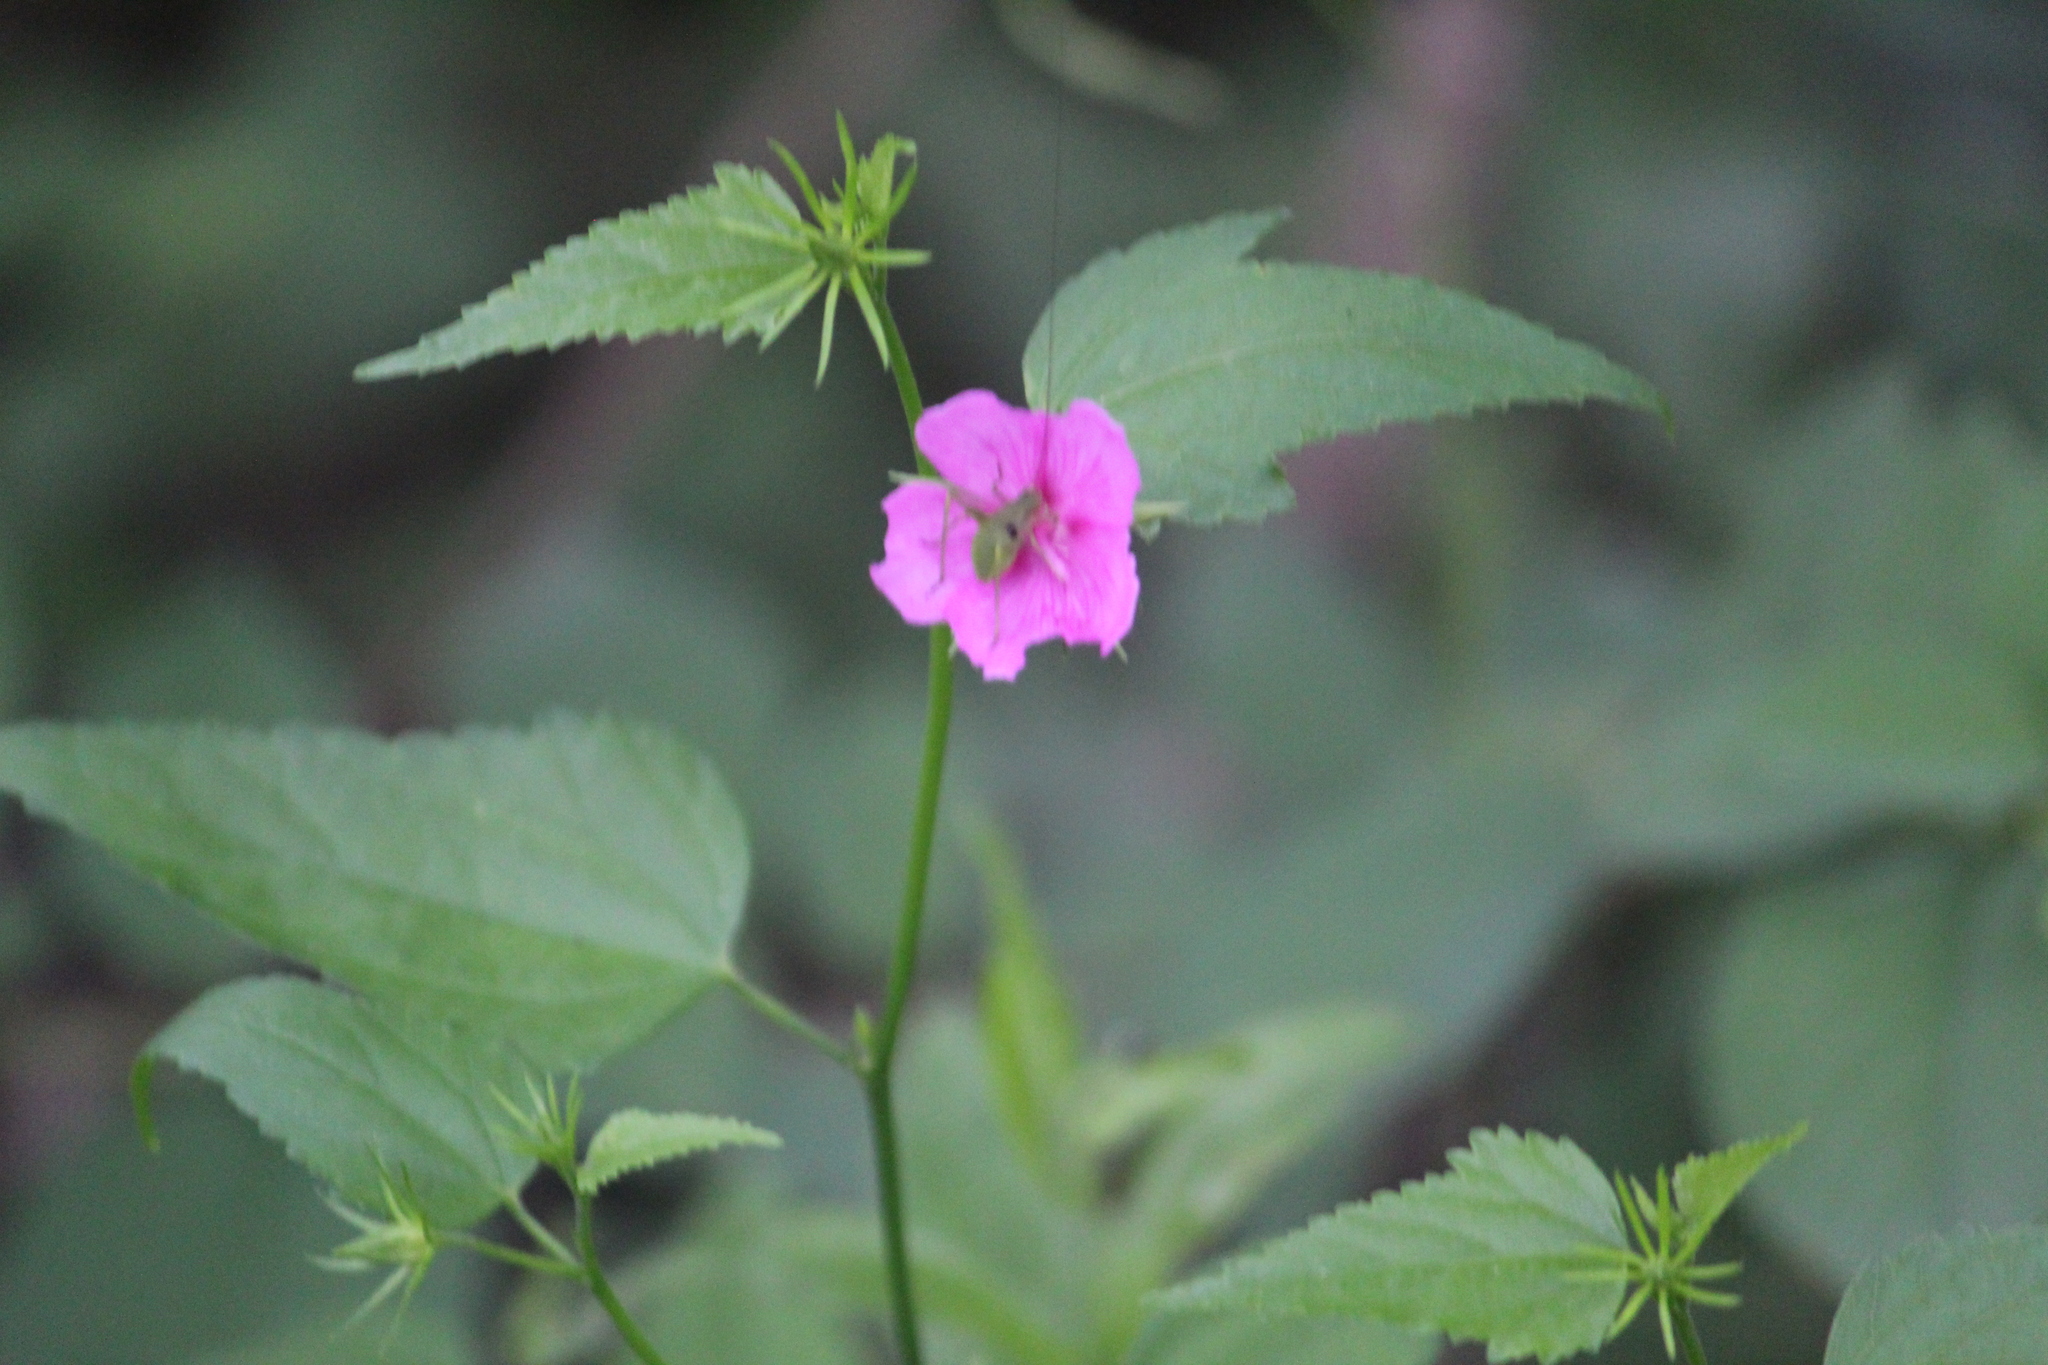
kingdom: Plantae
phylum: Tracheophyta
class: Magnoliopsida
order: Malvales
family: Malvaceae
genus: Hibiscus
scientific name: Hibiscus phoeniceus
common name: Brazilian rosemallow
